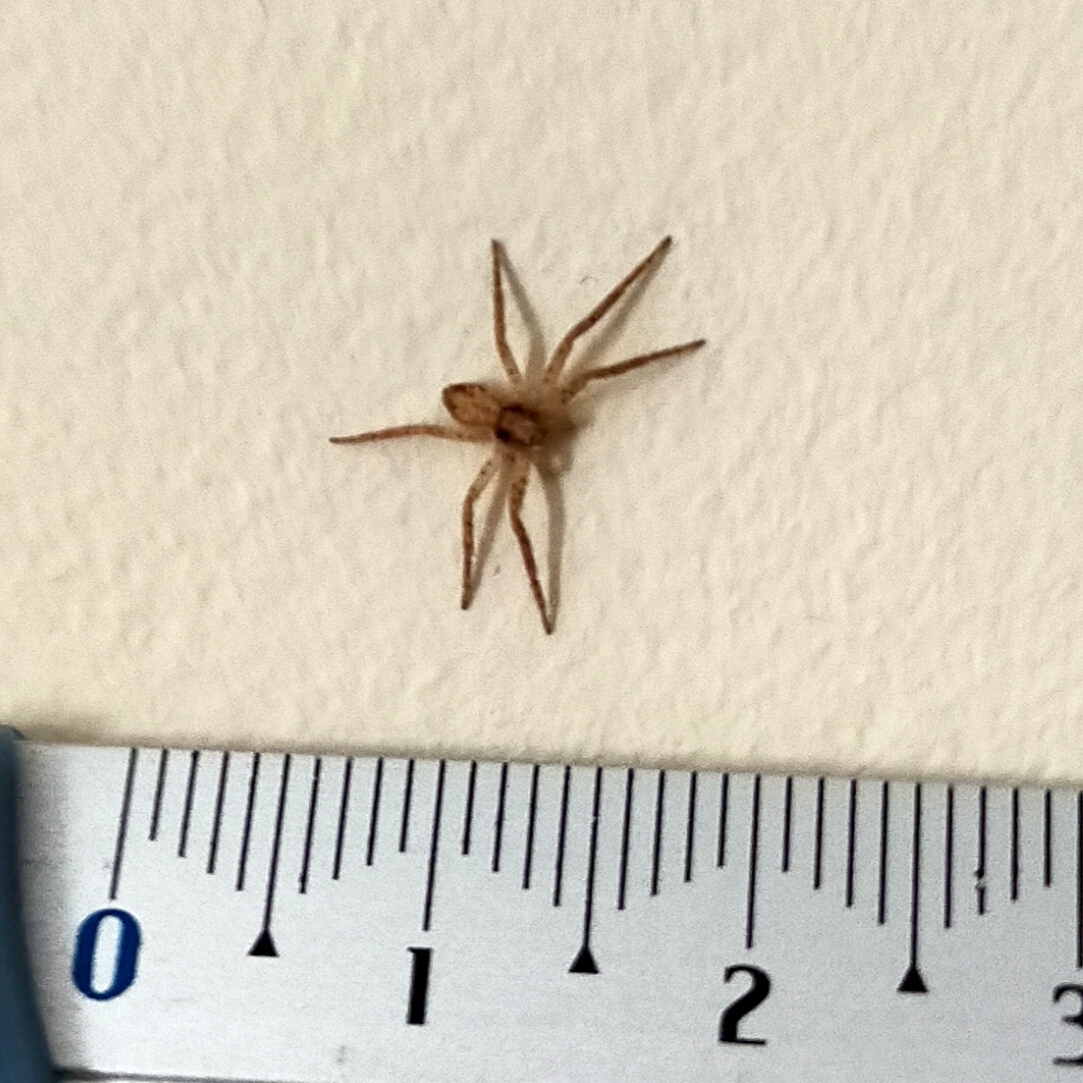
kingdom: Animalia
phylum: Arthropoda
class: Arachnida
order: Araneae
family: Philodromidae
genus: Philodromus
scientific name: Philodromus dispar
